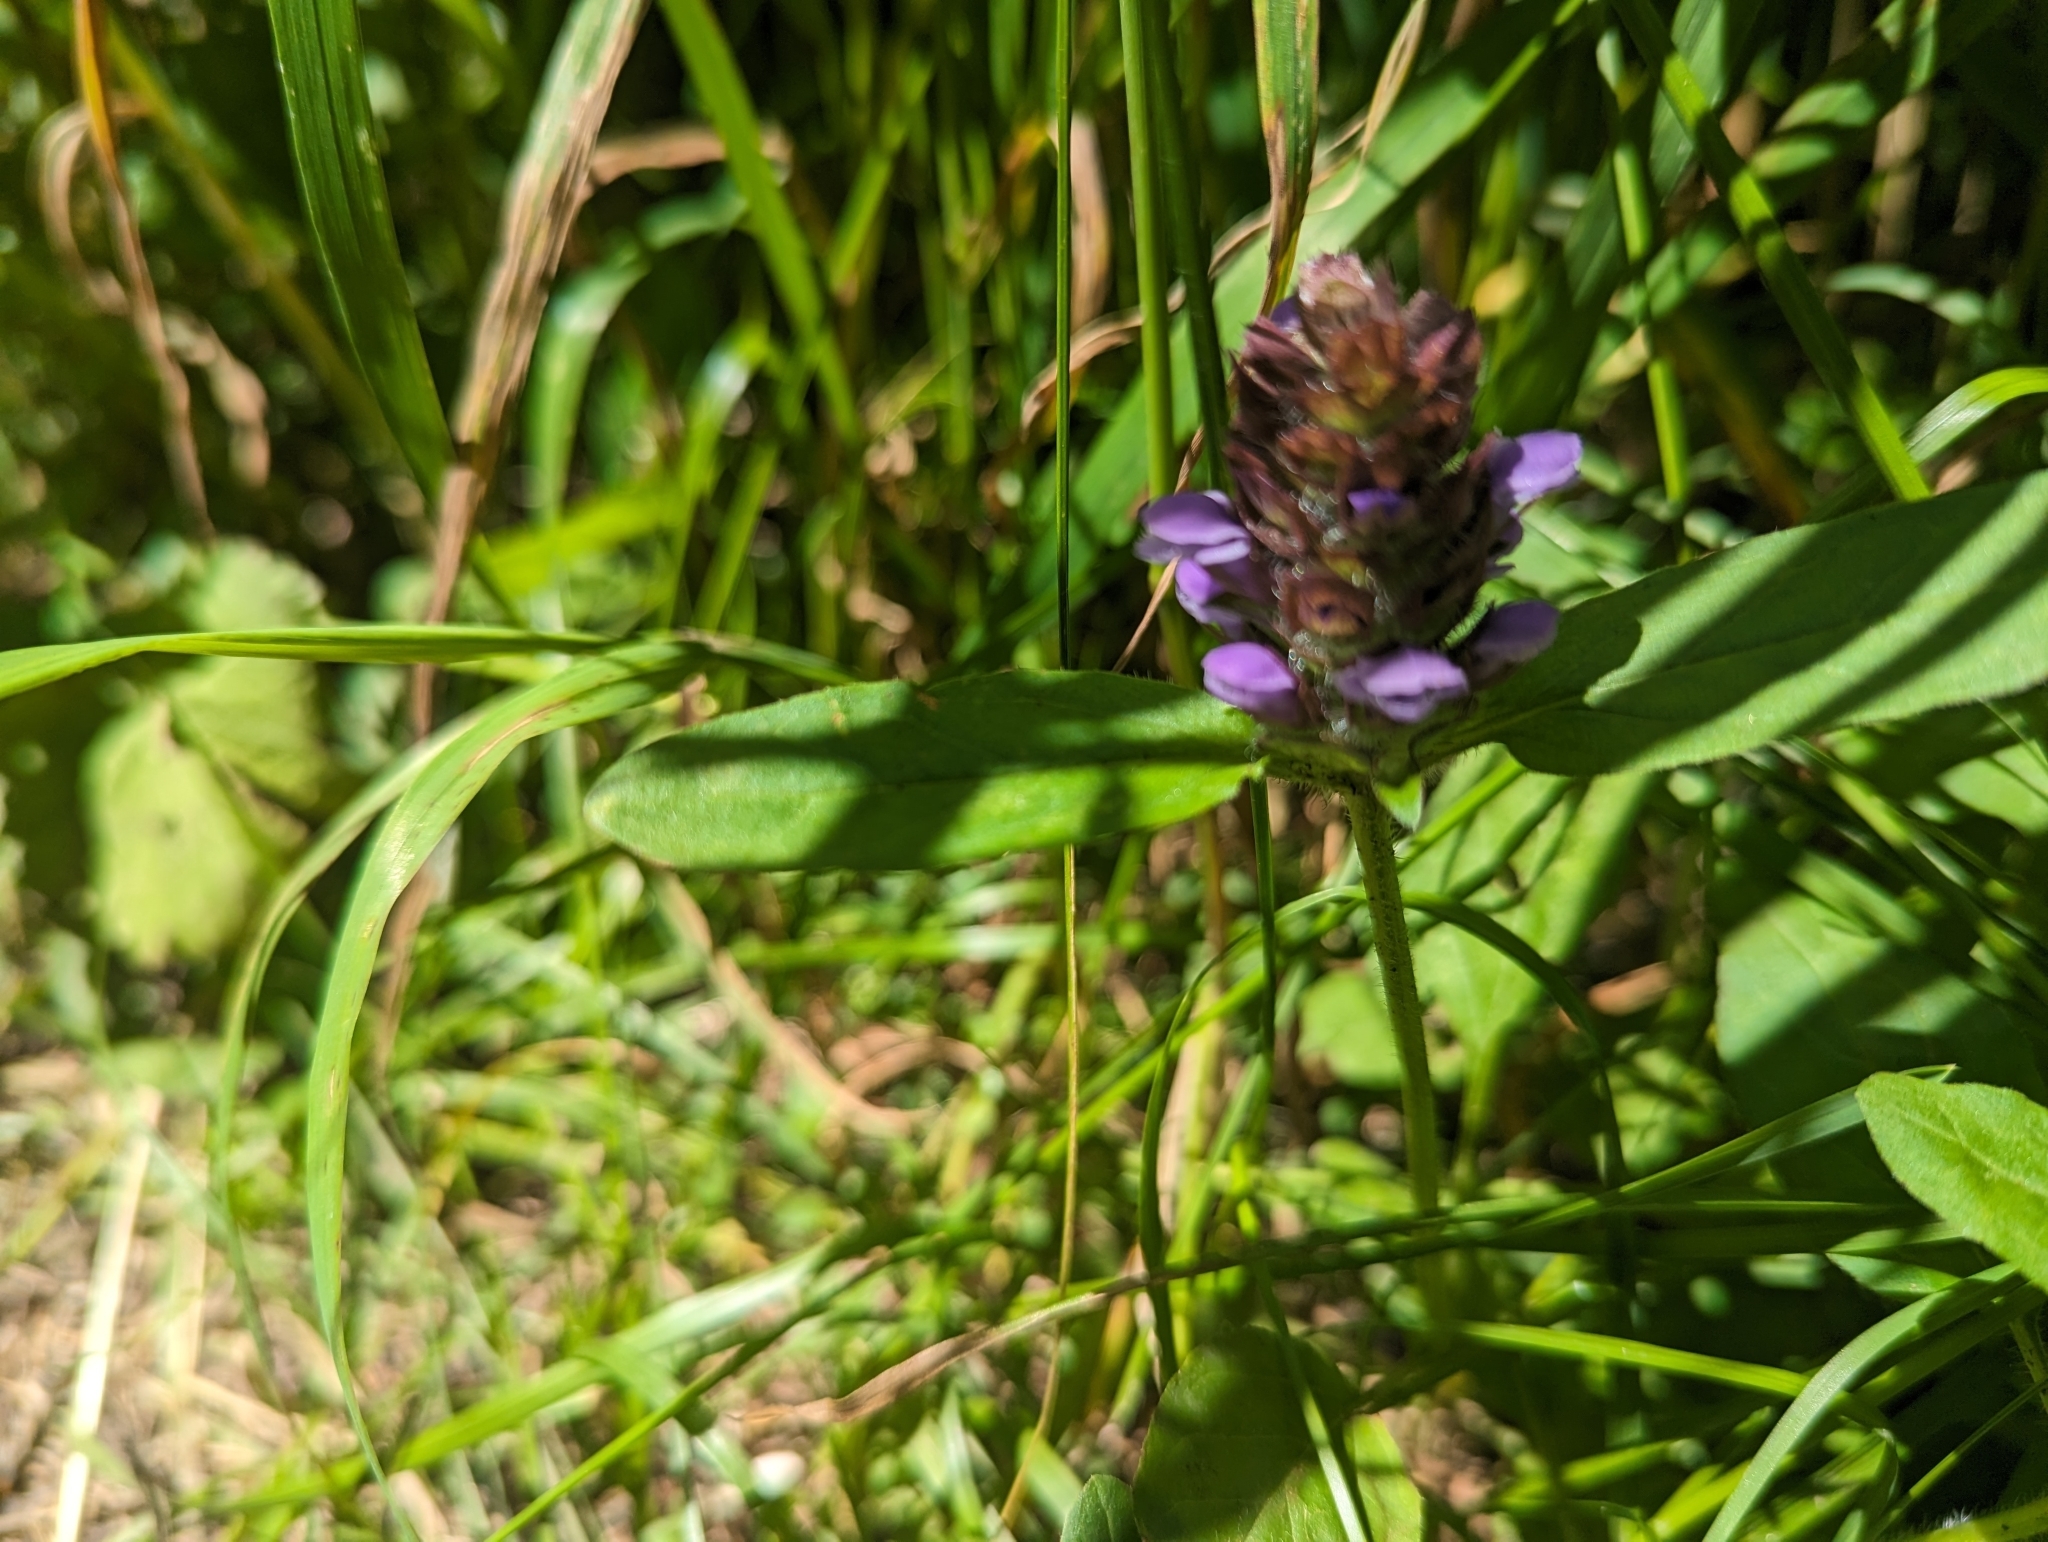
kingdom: Plantae
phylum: Tracheophyta
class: Magnoliopsida
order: Lamiales
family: Lamiaceae
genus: Prunella
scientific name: Prunella vulgaris
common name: Heal-all
